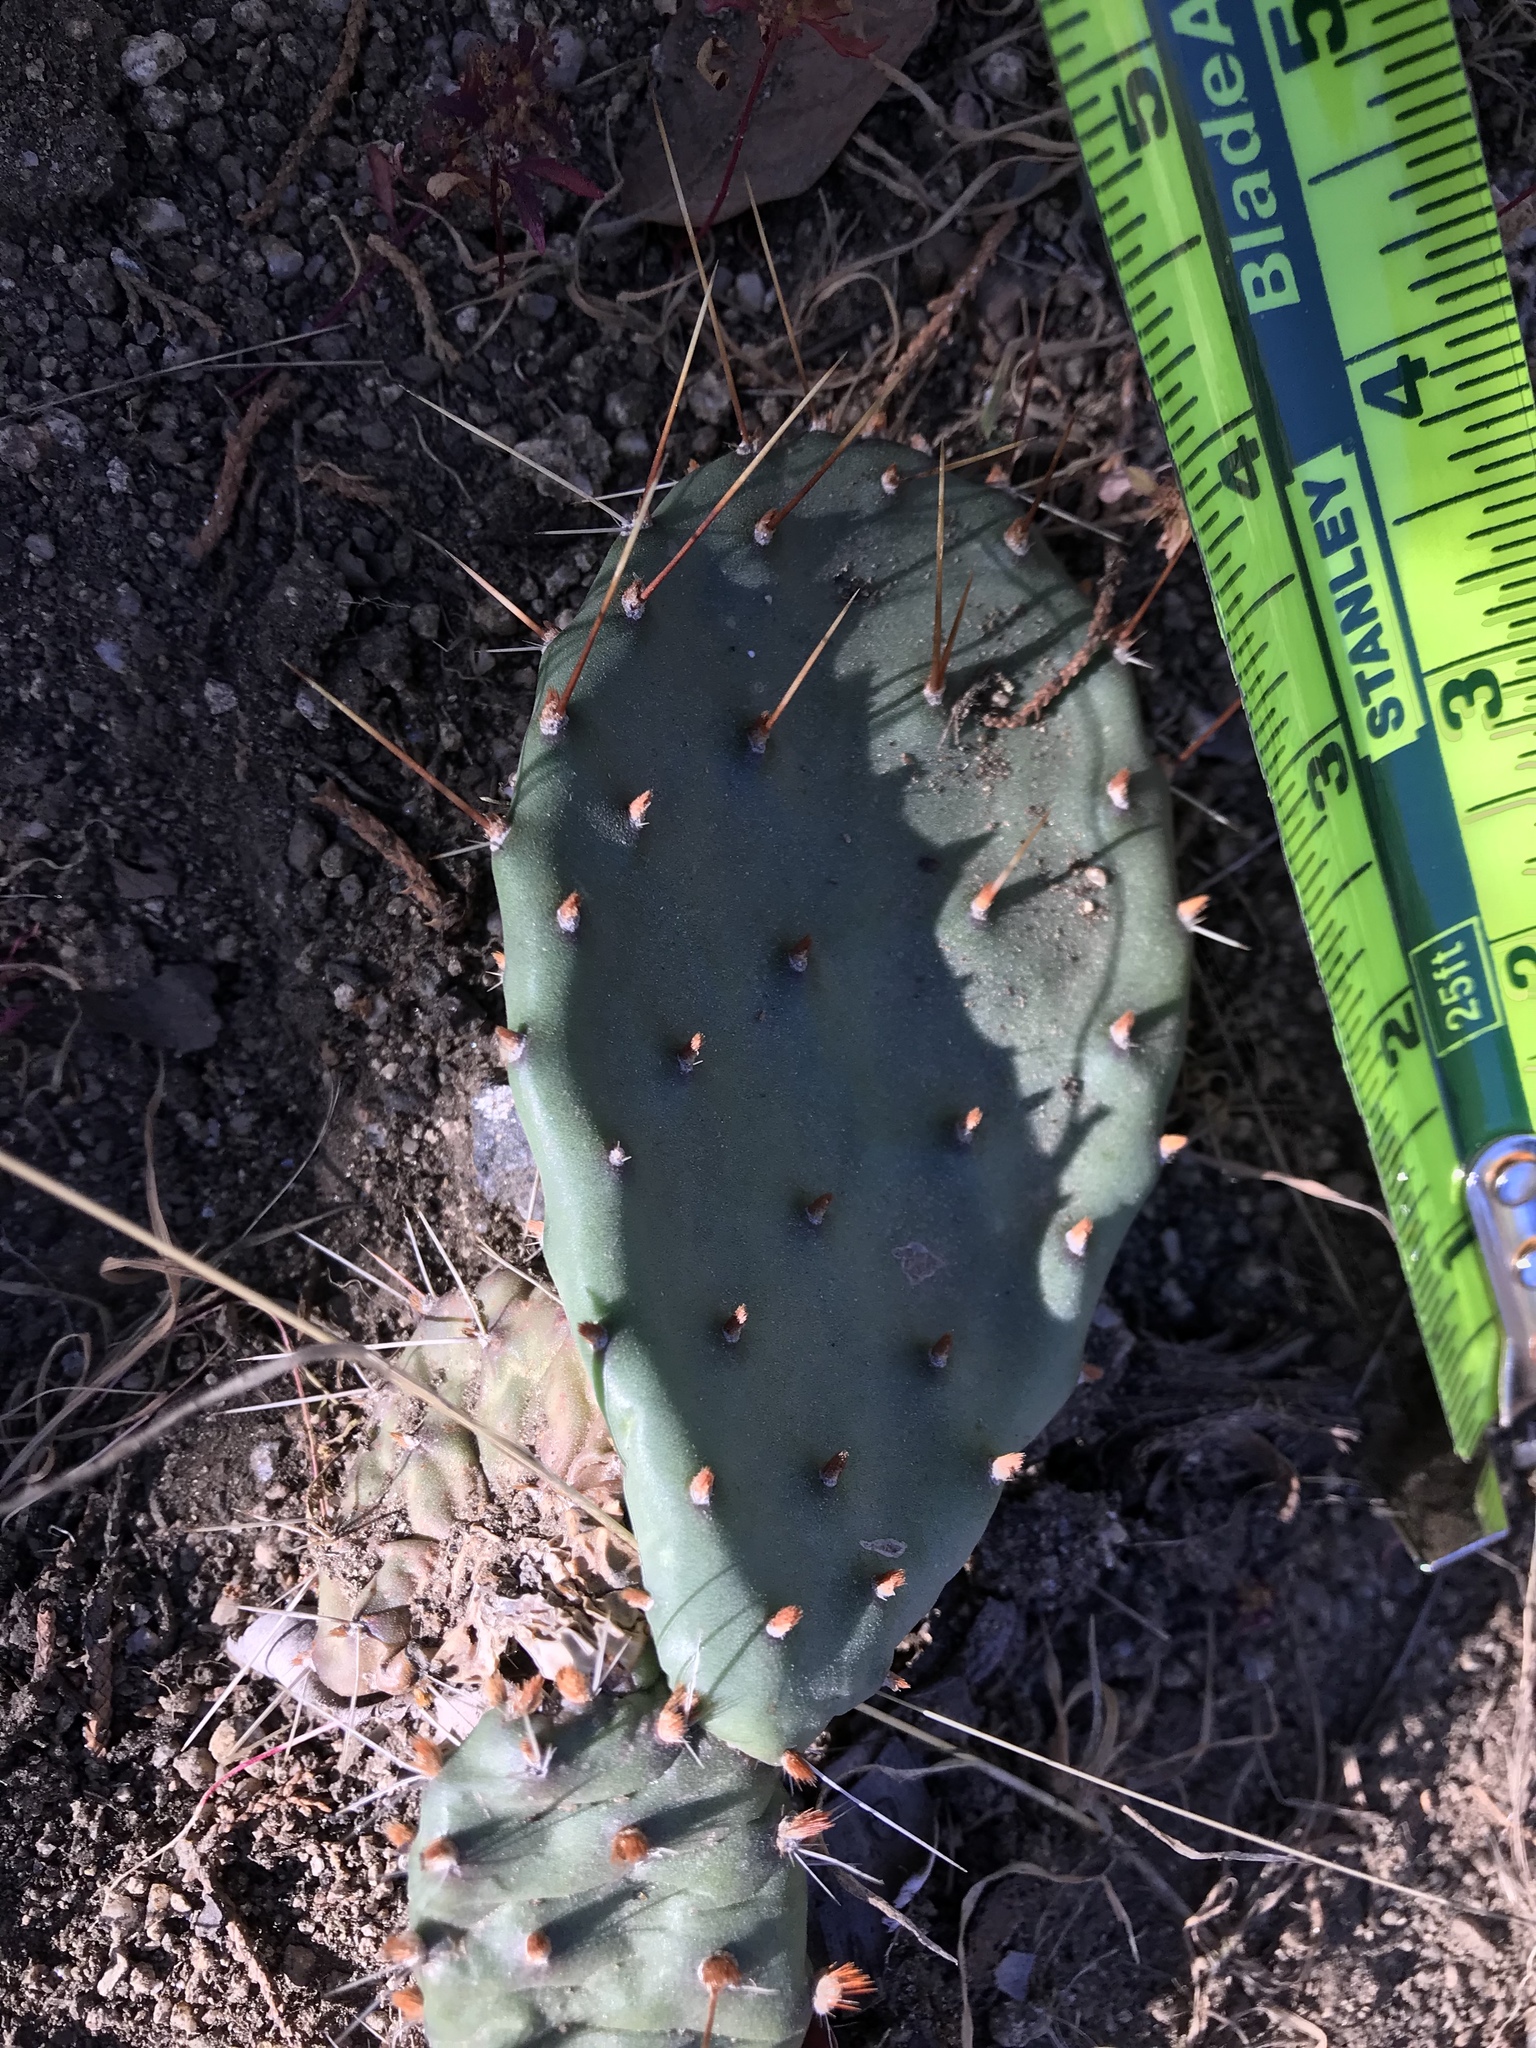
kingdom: Plantae
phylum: Tracheophyta
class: Magnoliopsida
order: Caryophyllales
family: Cactaceae
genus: Opuntia
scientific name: Opuntia pottsii
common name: Potts's prickly-pear
